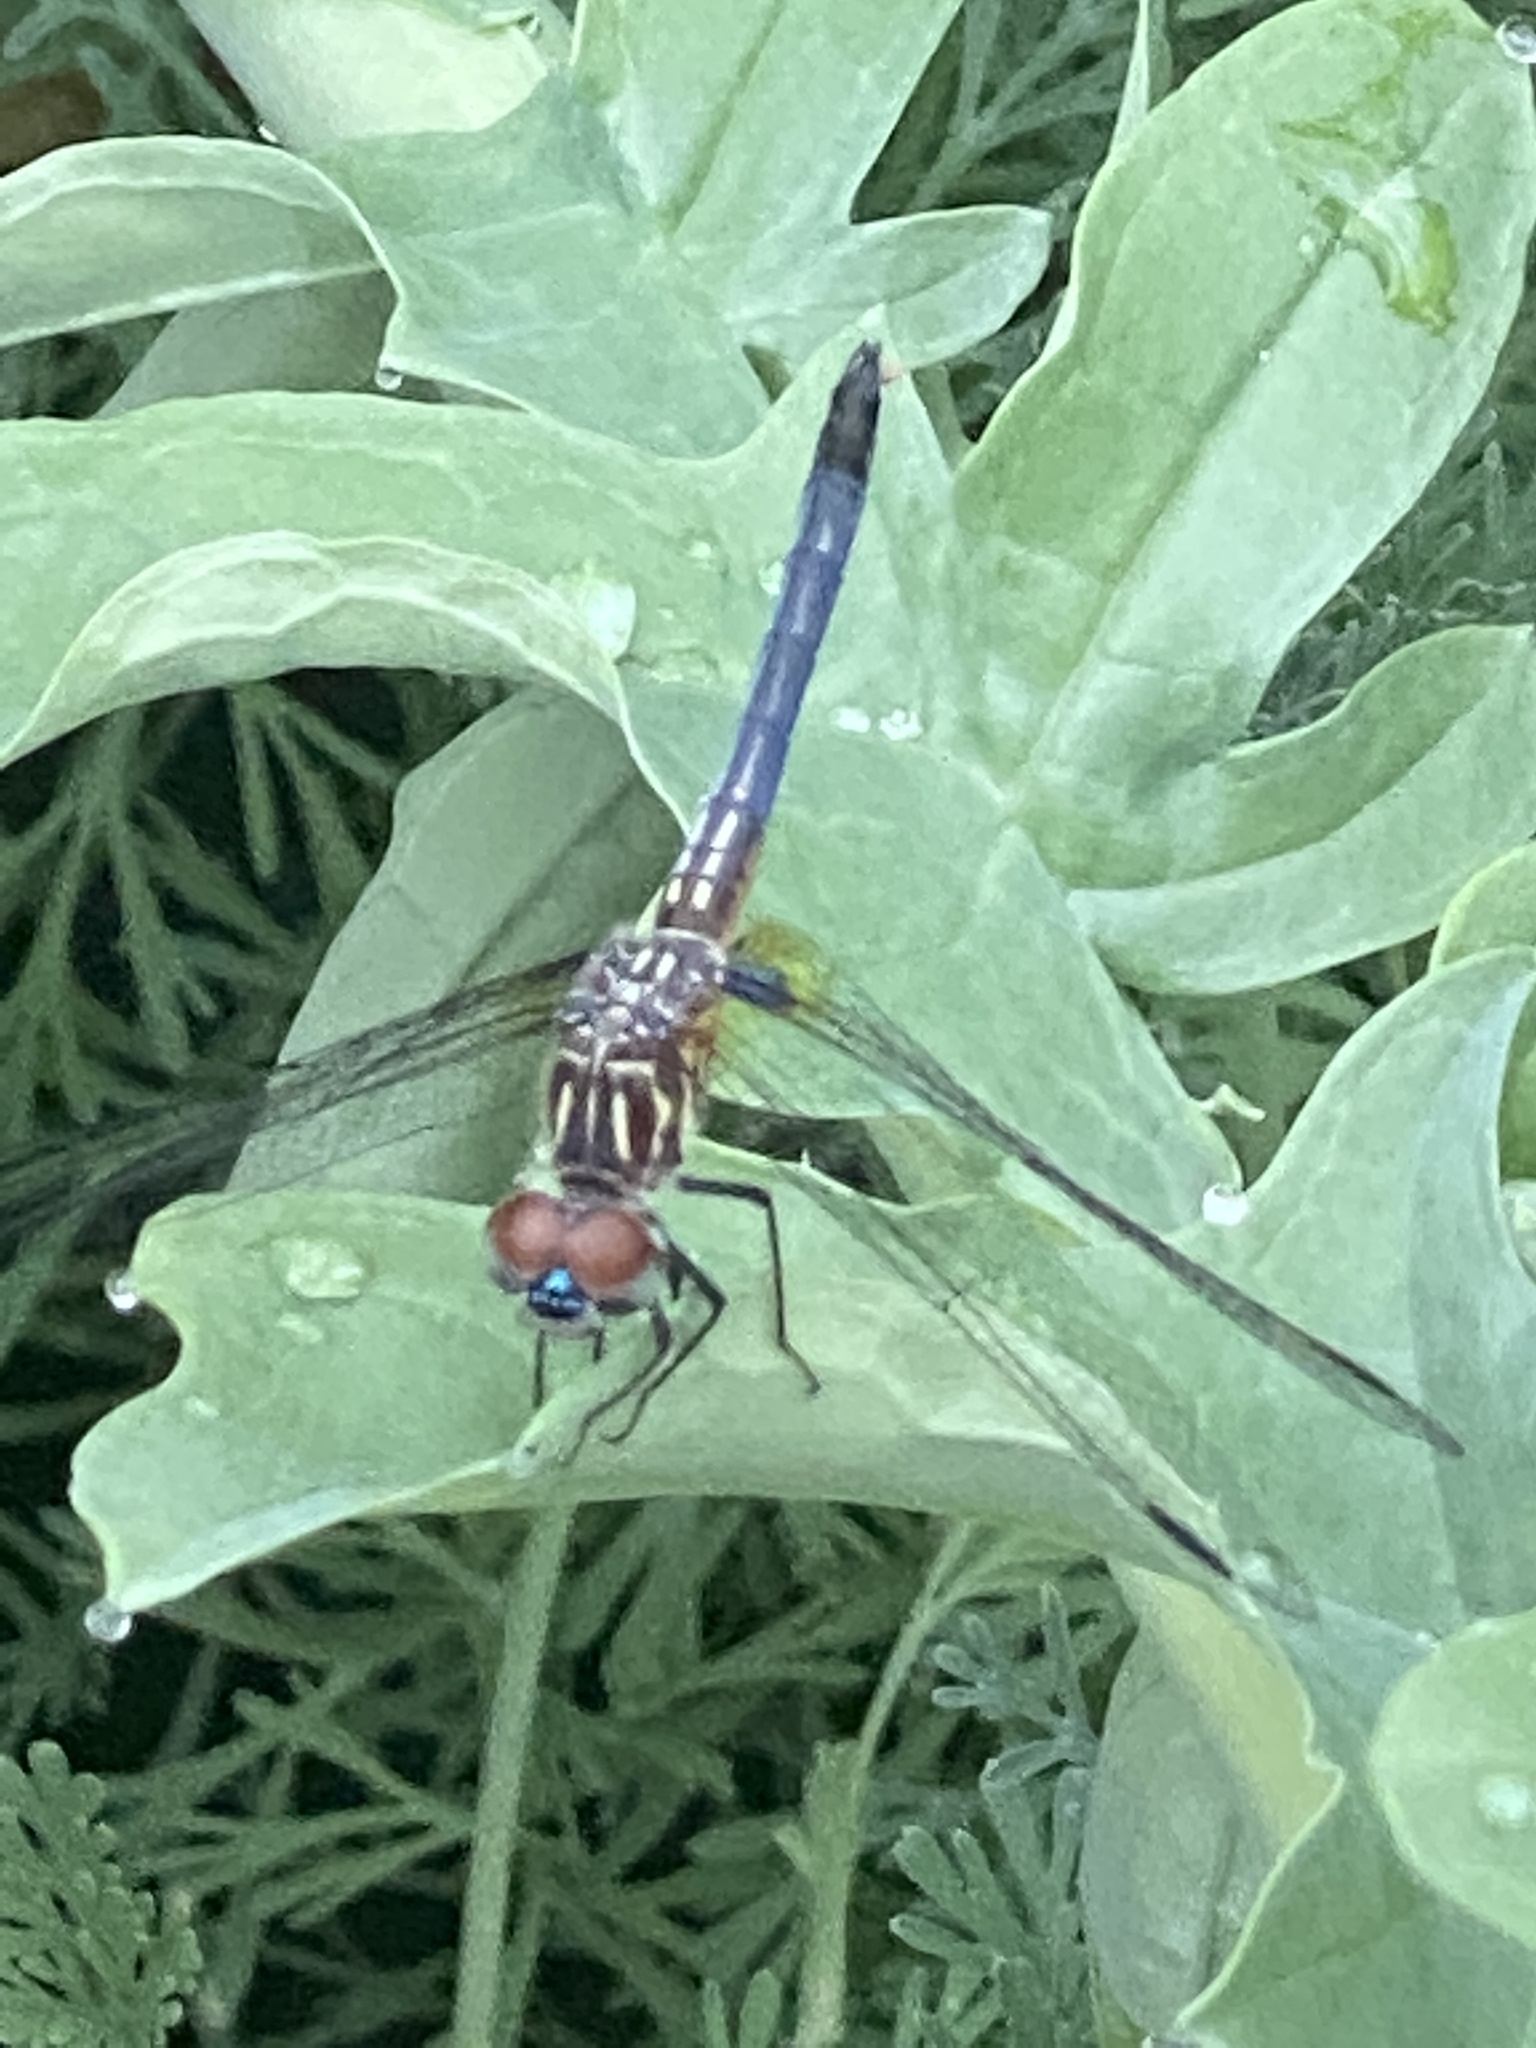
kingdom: Animalia
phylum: Arthropoda
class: Insecta
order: Odonata
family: Libellulidae
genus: Pachydiplax
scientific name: Pachydiplax longipennis
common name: Blue dasher
